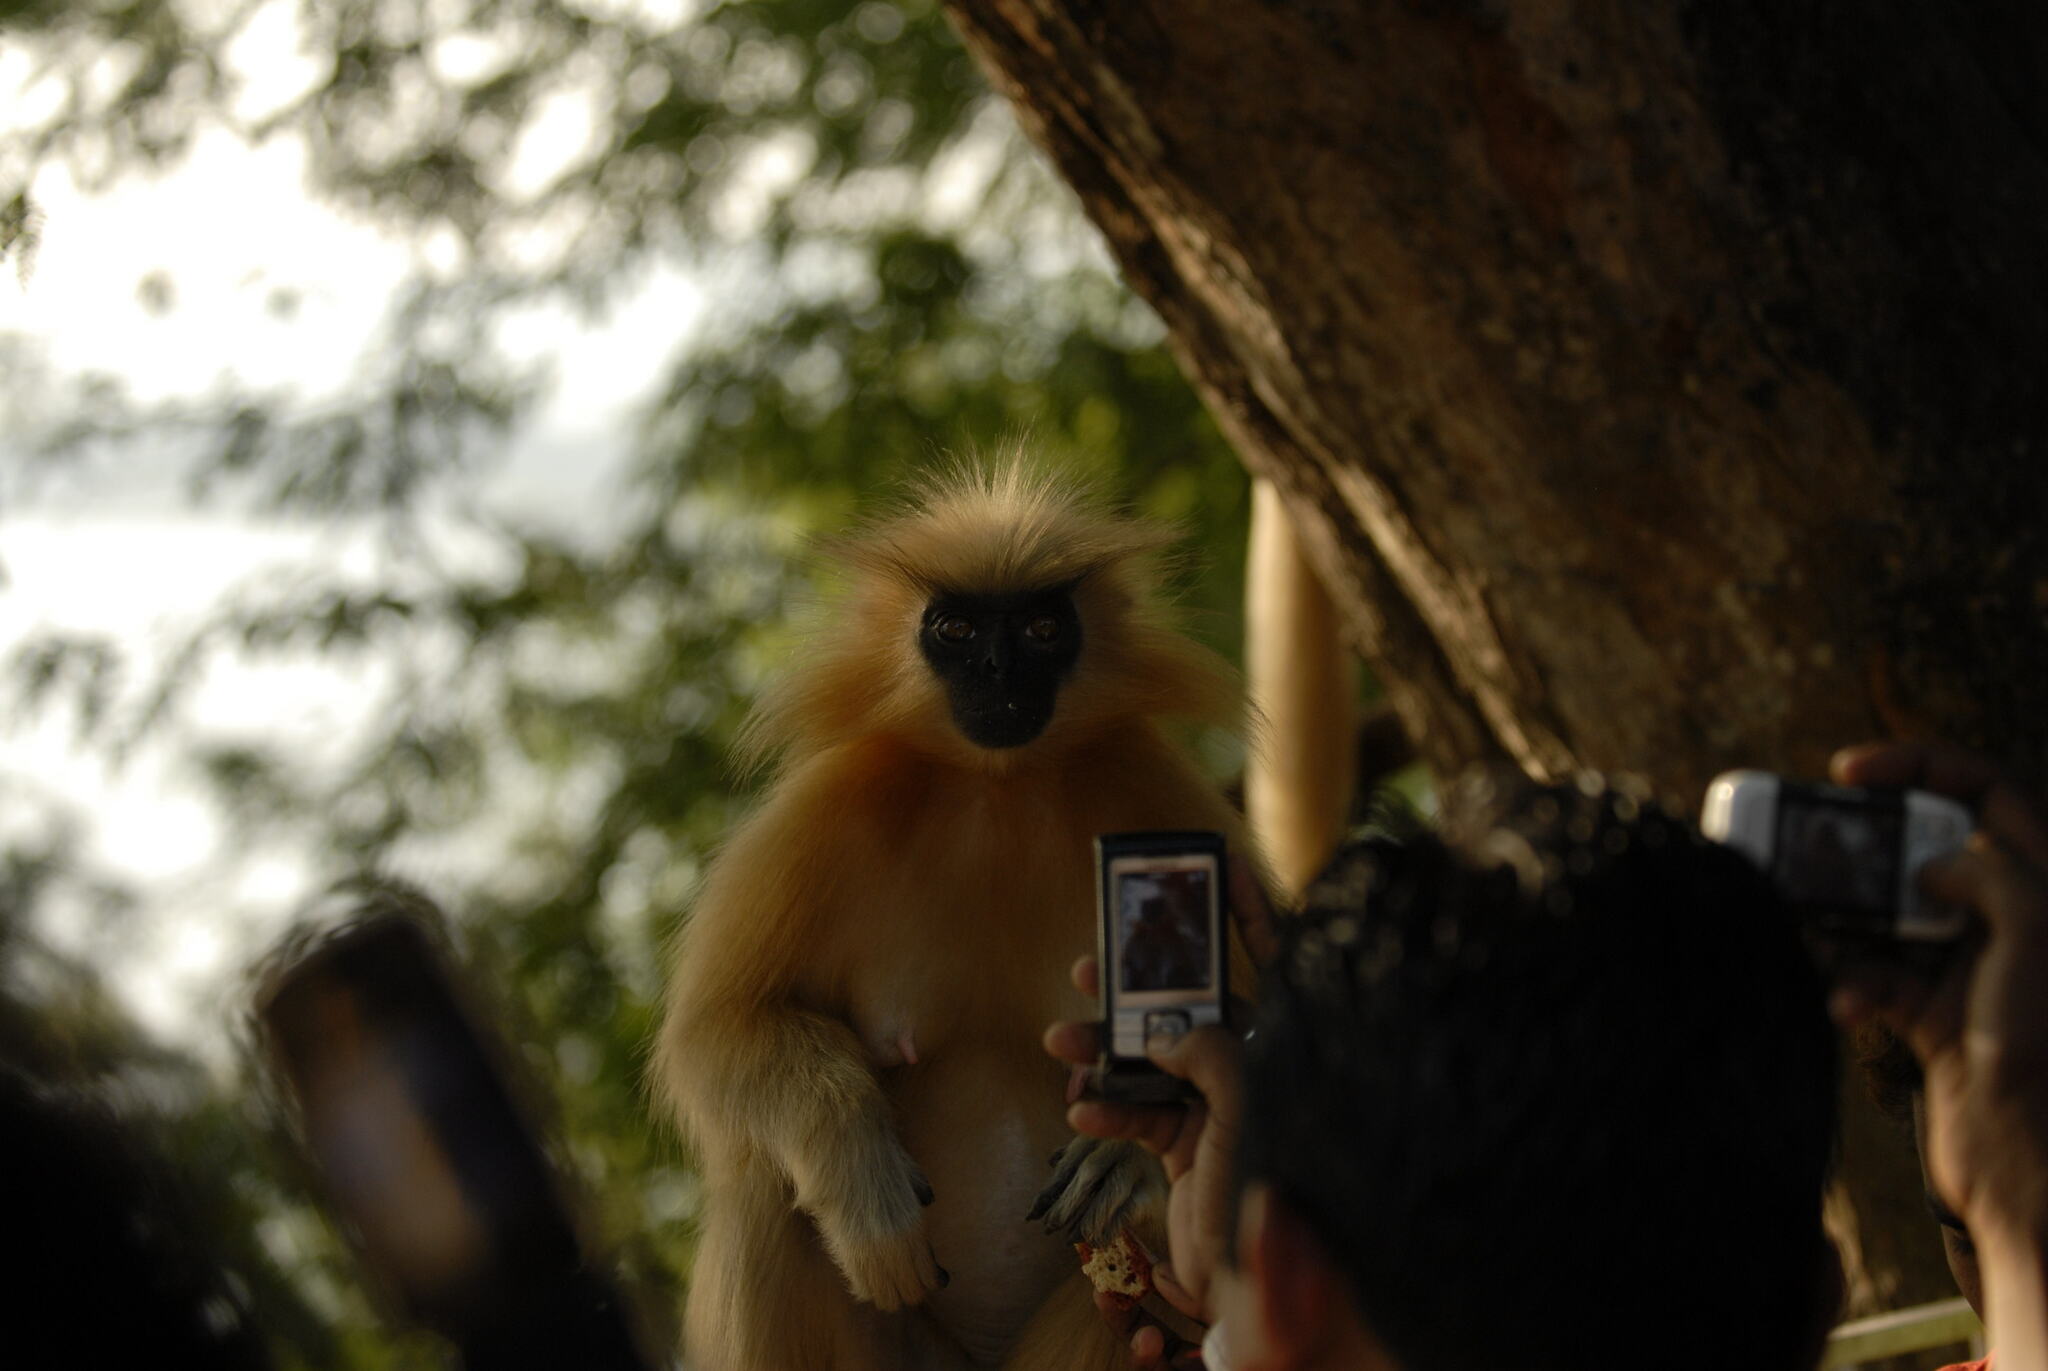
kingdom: Animalia
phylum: Chordata
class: Mammalia
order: Primates
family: Cercopithecidae
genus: Trachypithecus
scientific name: Trachypithecus geei
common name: Gee's golden langur
